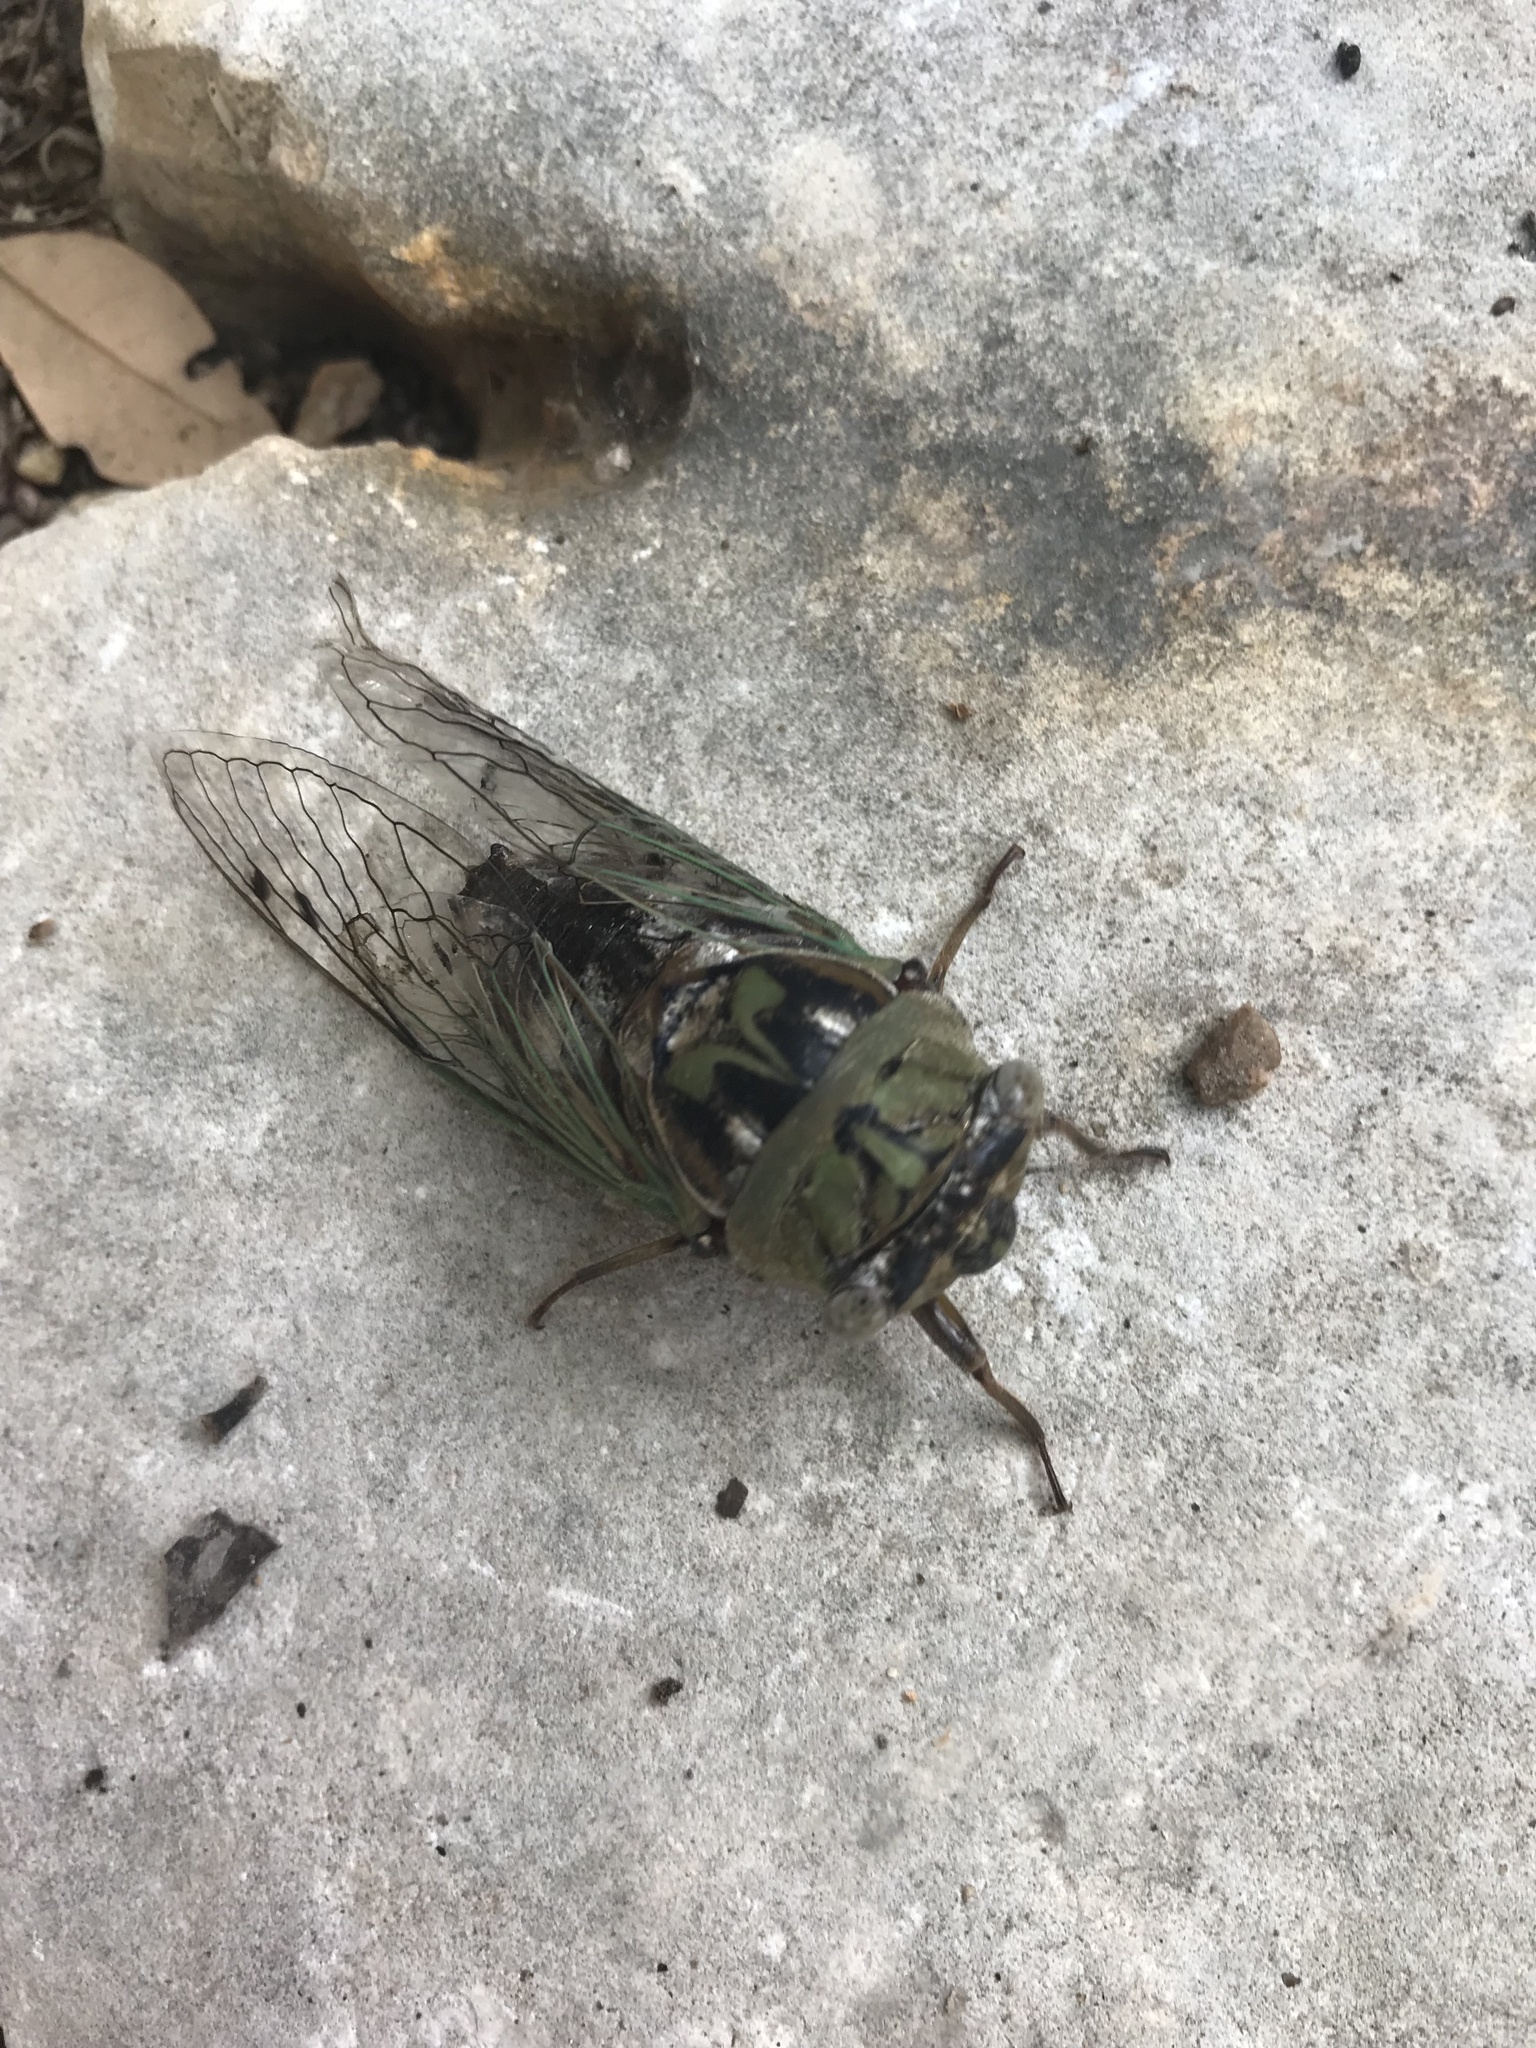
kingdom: Animalia
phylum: Arthropoda
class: Insecta
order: Hemiptera
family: Cicadidae
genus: Megatibicen
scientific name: Megatibicen resh
